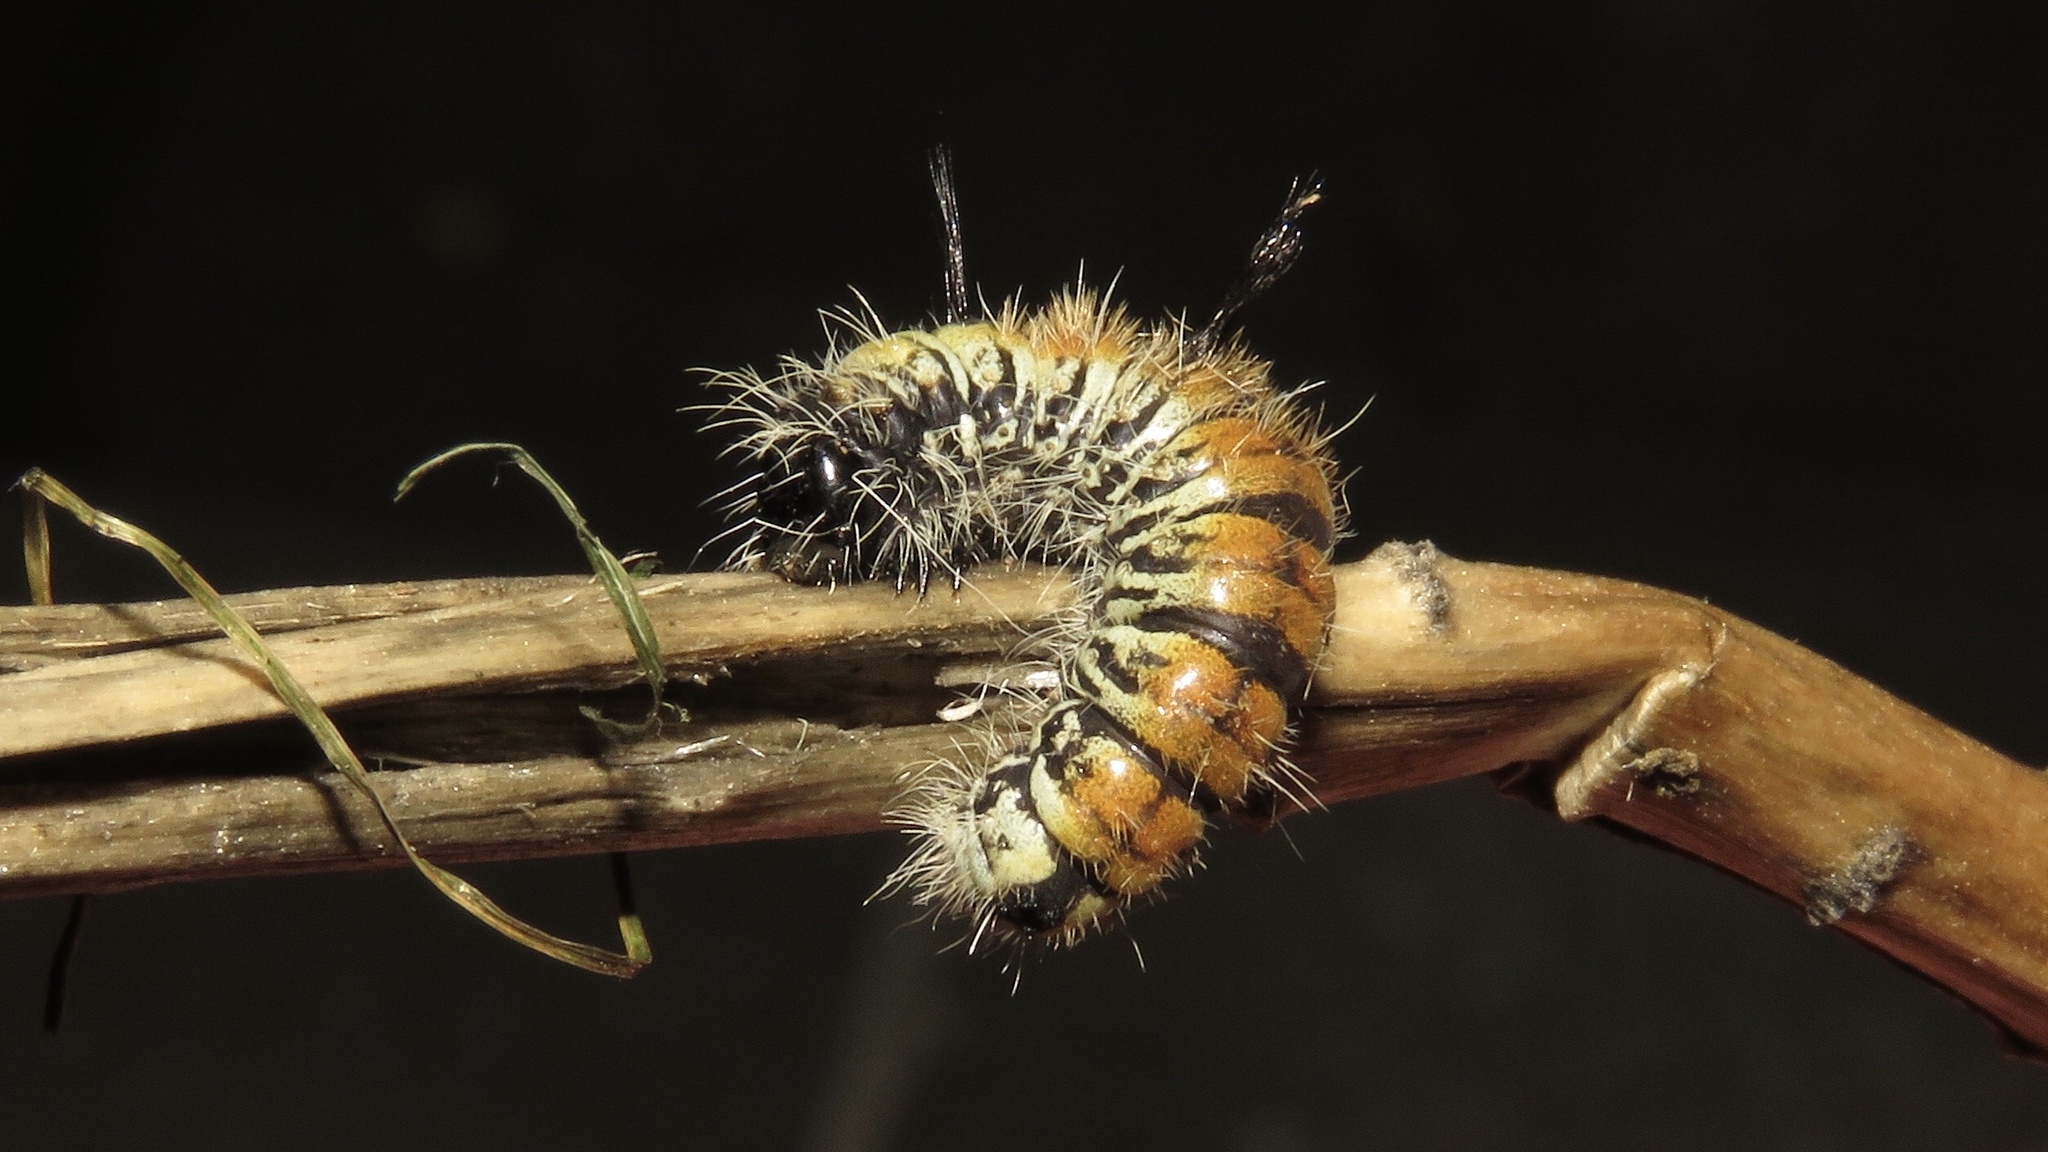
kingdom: Animalia
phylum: Arthropoda
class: Insecta
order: Lepidoptera
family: Noctuidae
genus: Acronicta
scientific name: Acronicta insita
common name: Large gray dagger
